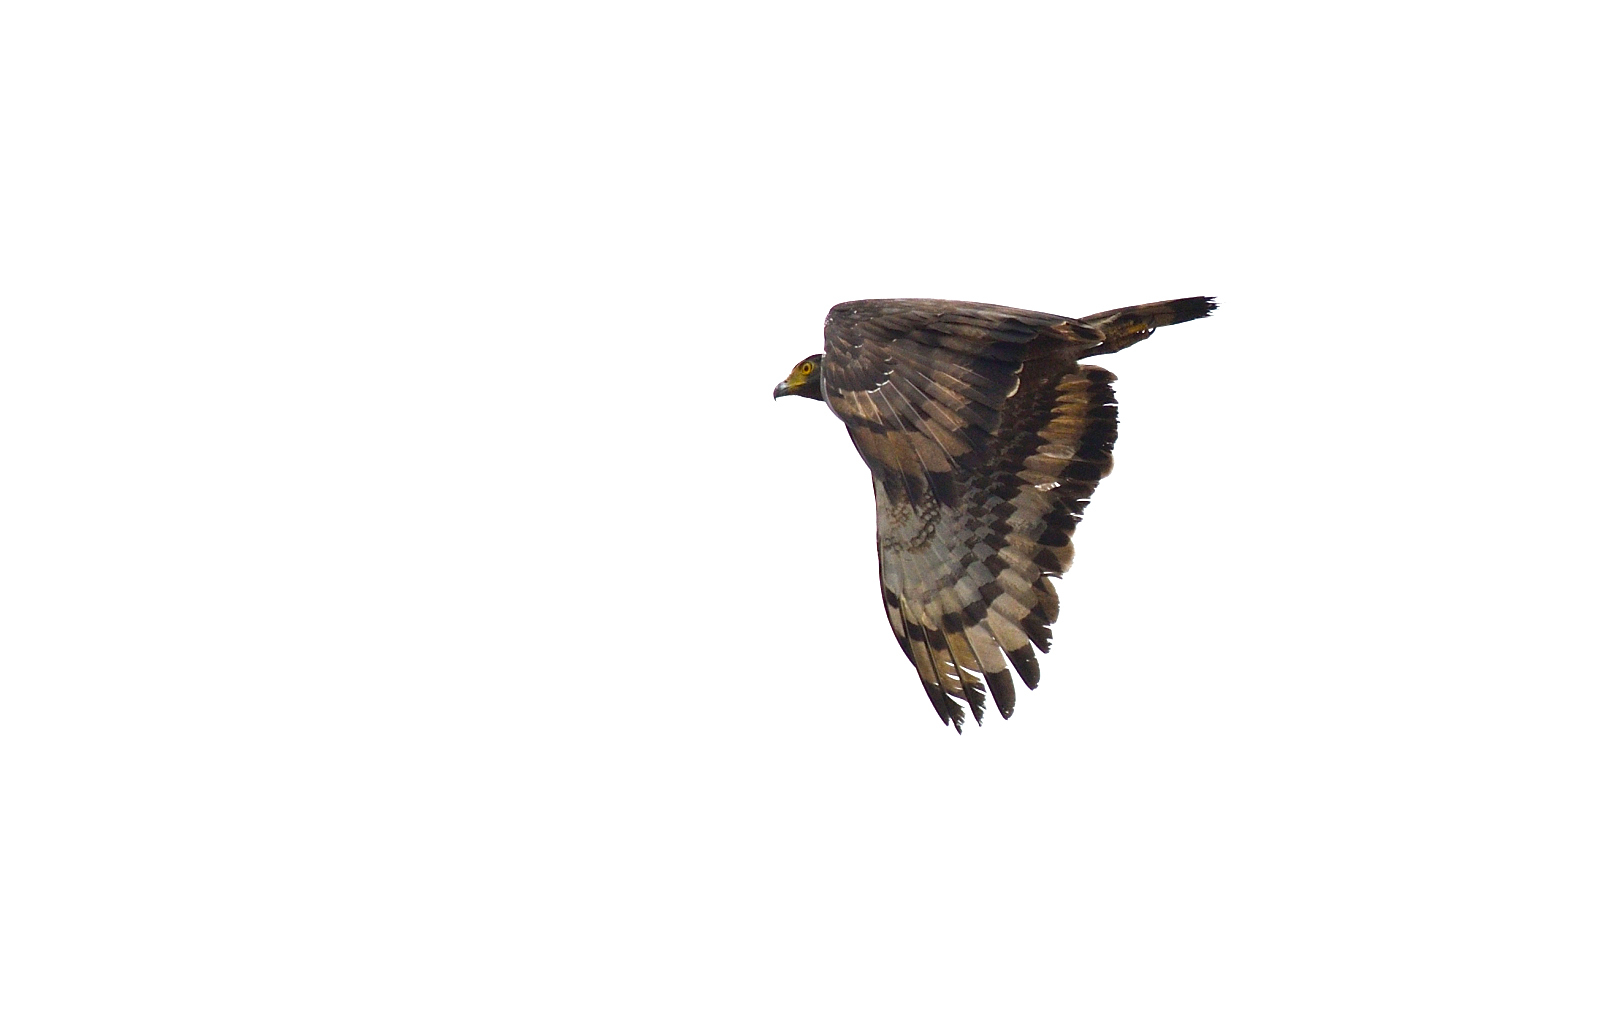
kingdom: Animalia
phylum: Chordata
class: Aves
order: Accipitriformes
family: Accipitridae
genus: Spilornis
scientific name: Spilornis cheela
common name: Crested serpent eagle
